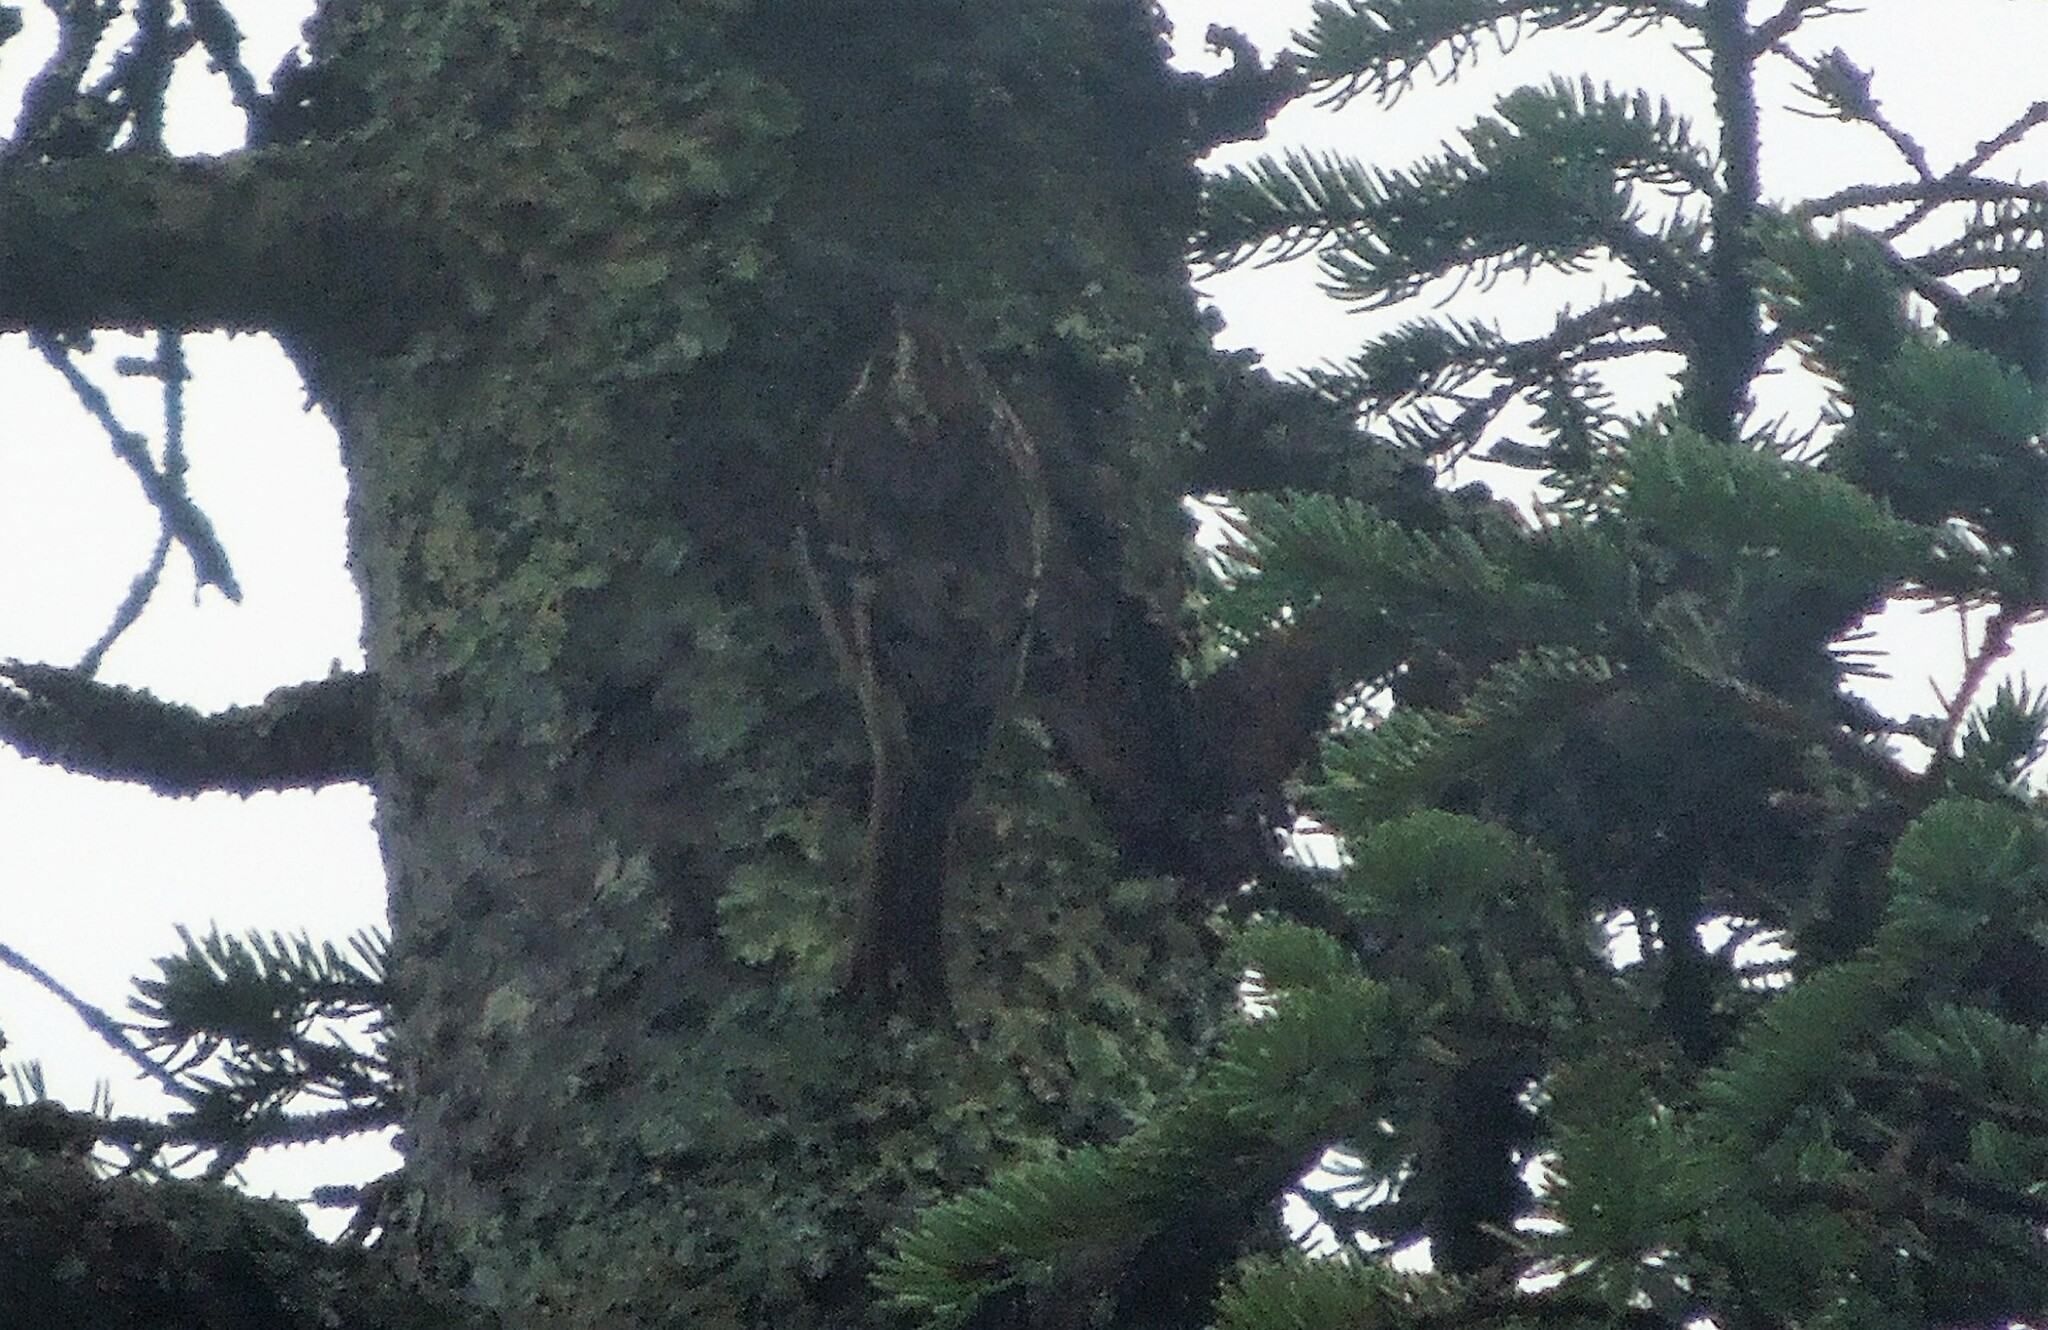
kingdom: Animalia
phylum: Chordata
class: Aves
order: Passeriformes
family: Certhiidae
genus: Certhia
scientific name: Certhia americana
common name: Brown creeper
